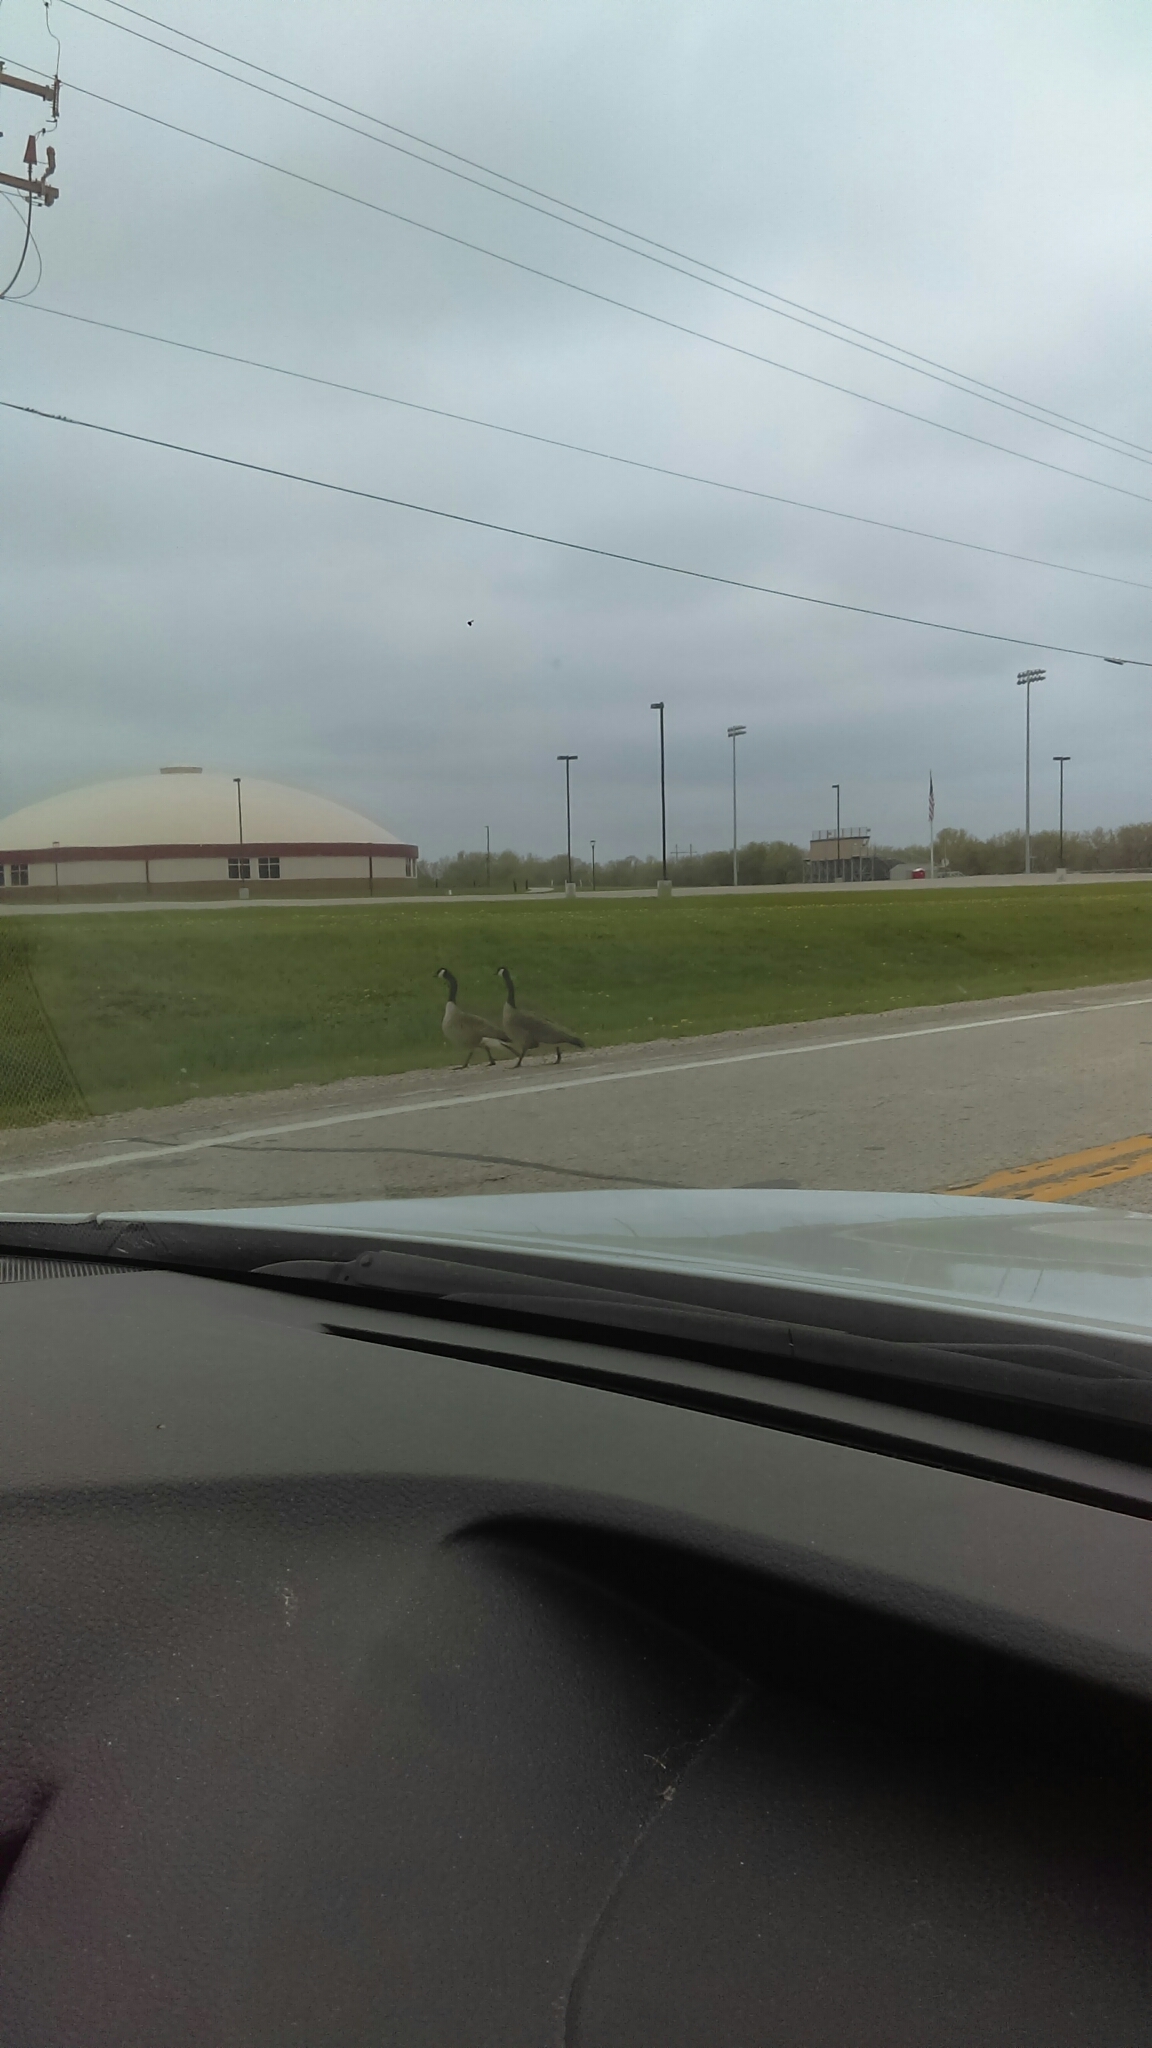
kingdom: Animalia
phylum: Chordata
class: Aves
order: Anseriformes
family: Anatidae
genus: Branta
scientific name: Branta canadensis
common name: Canada goose
